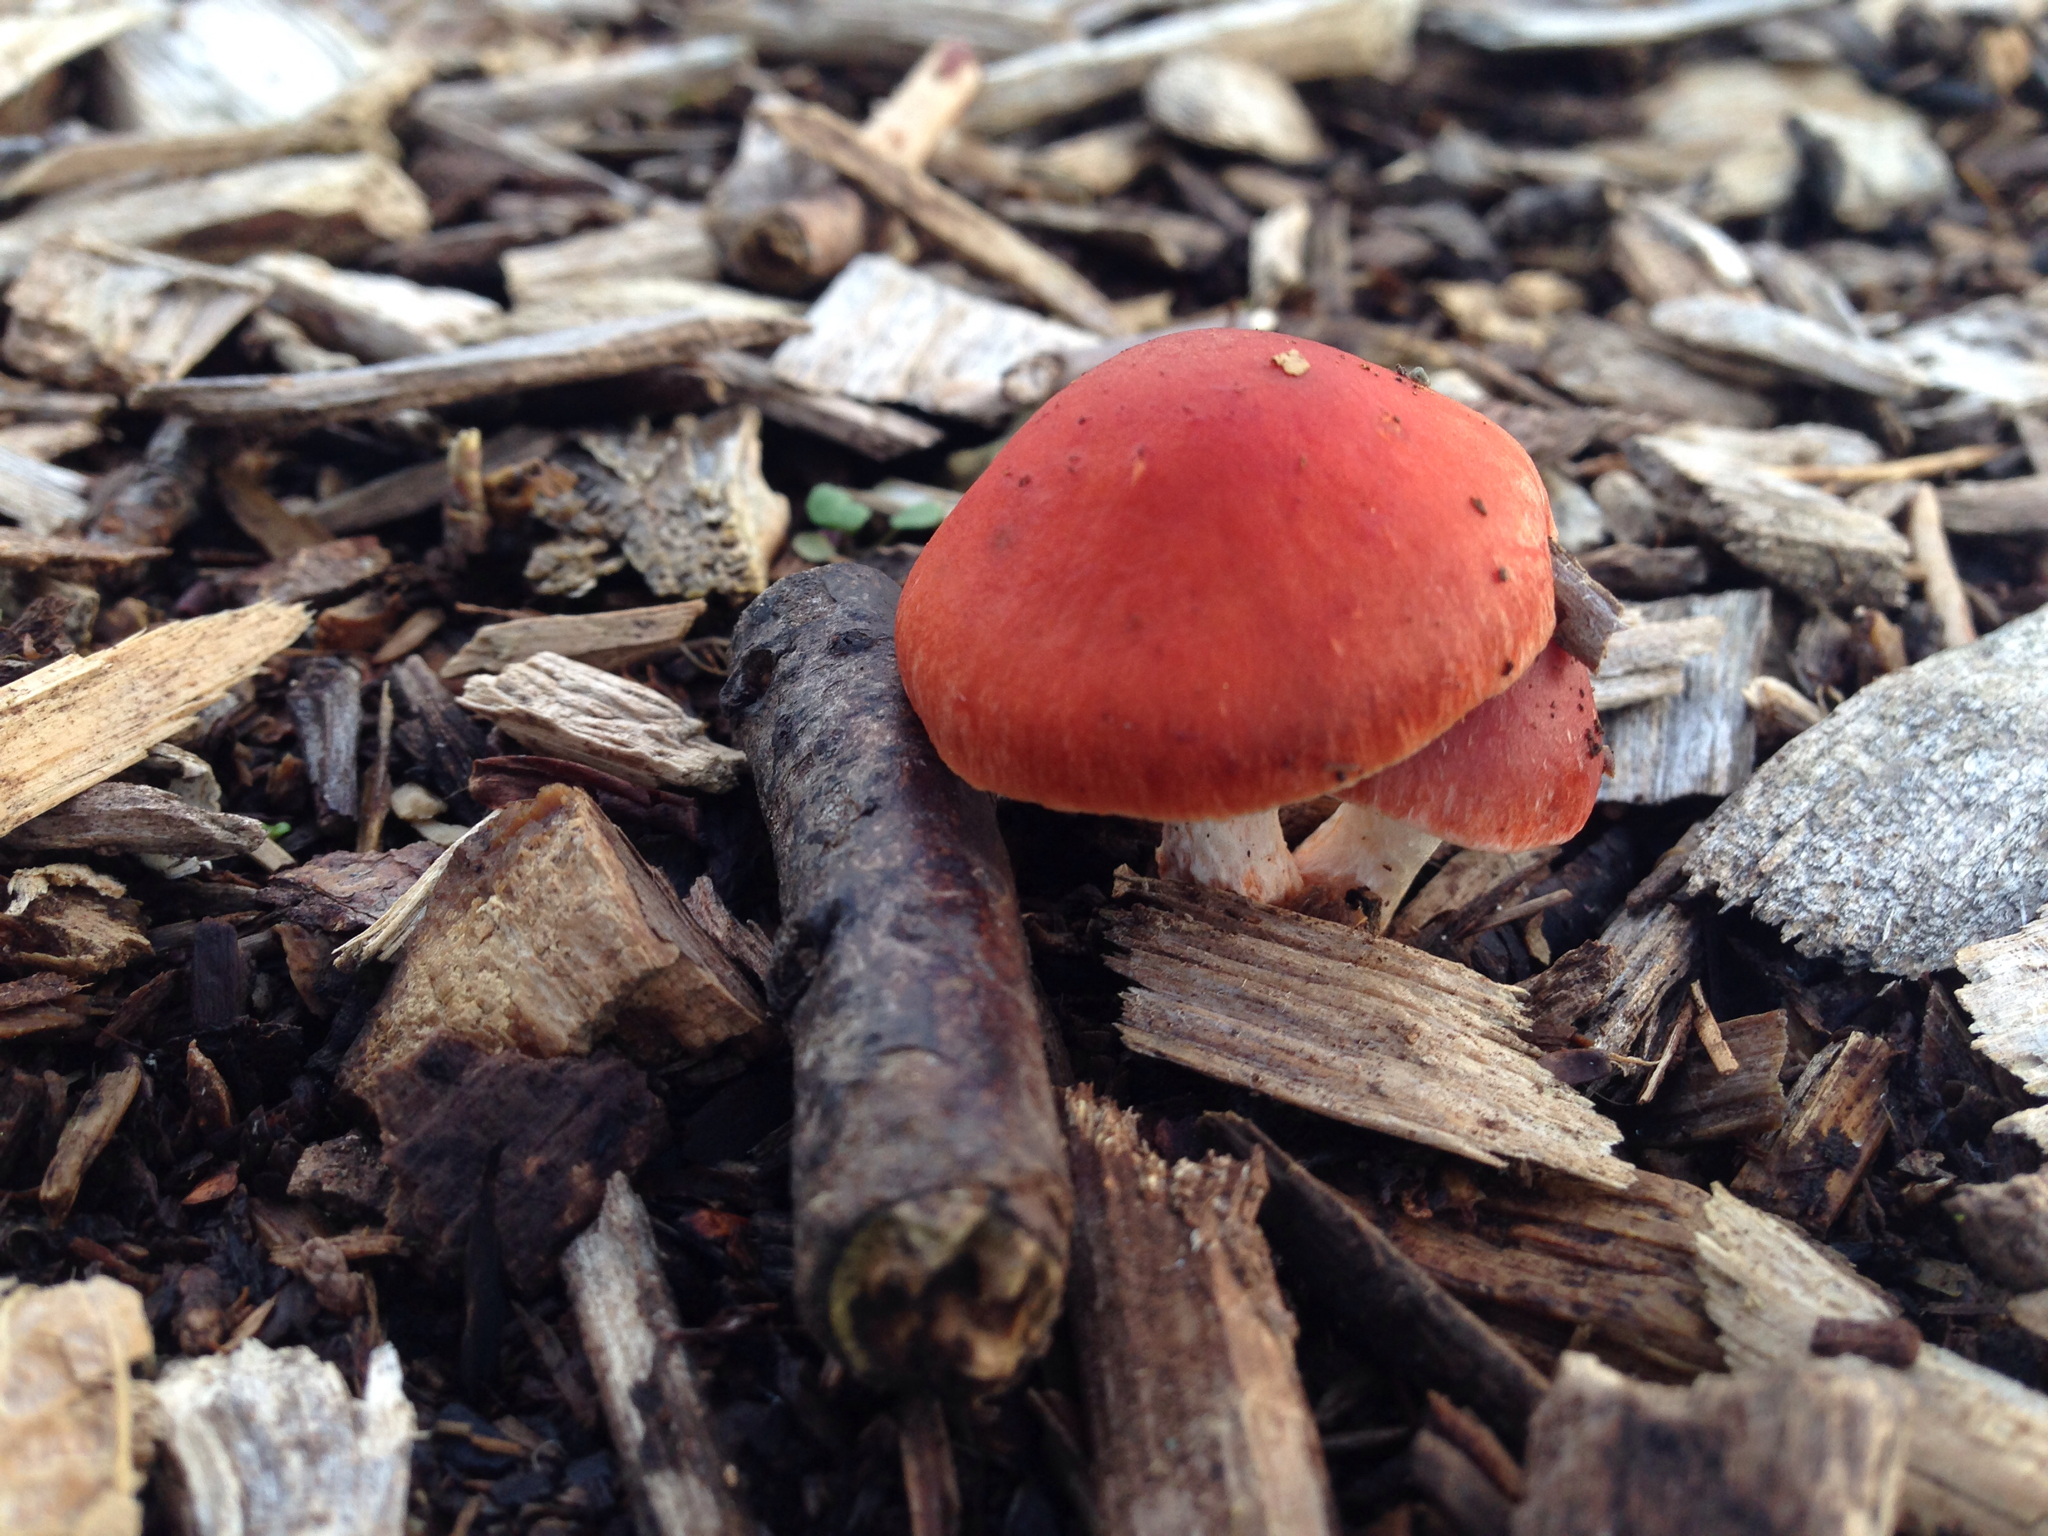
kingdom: Fungi
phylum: Basidiomycota
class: Agaricomycetes
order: Agaricales
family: Strophariaceae
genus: Leratiomyces
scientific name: Leratiomyces ceres
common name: Redlead roundhead
